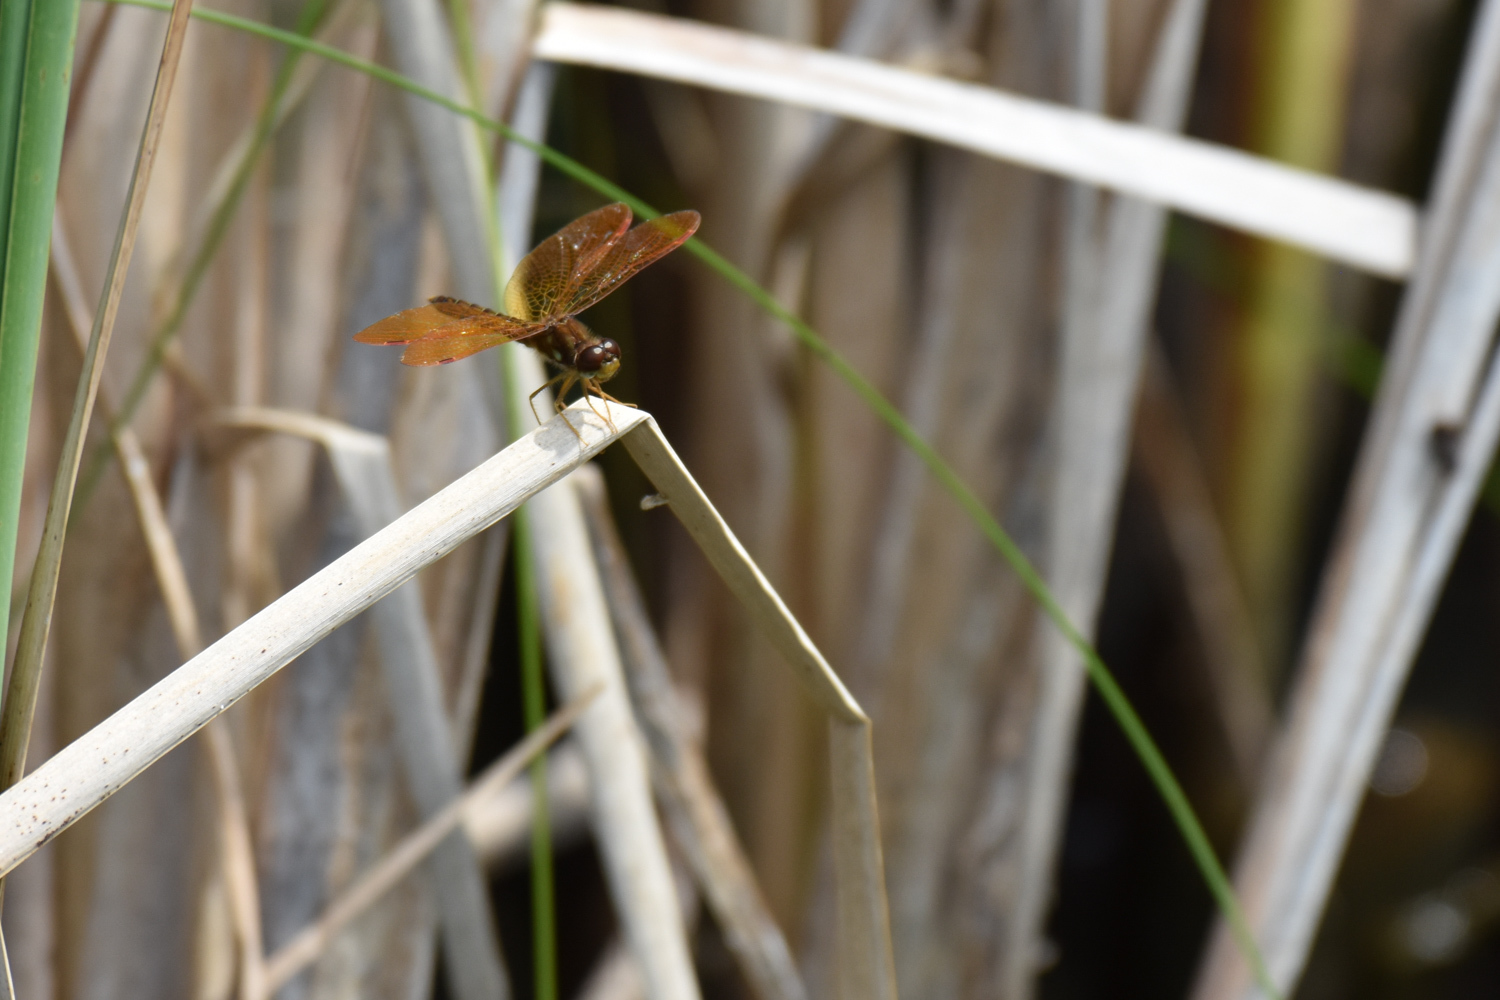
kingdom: Animalia
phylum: Arthropoda
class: Insecta
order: Odonata
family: Libellulidae
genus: Perithemis
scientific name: Perithemis tenera
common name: Eastern amberwing
